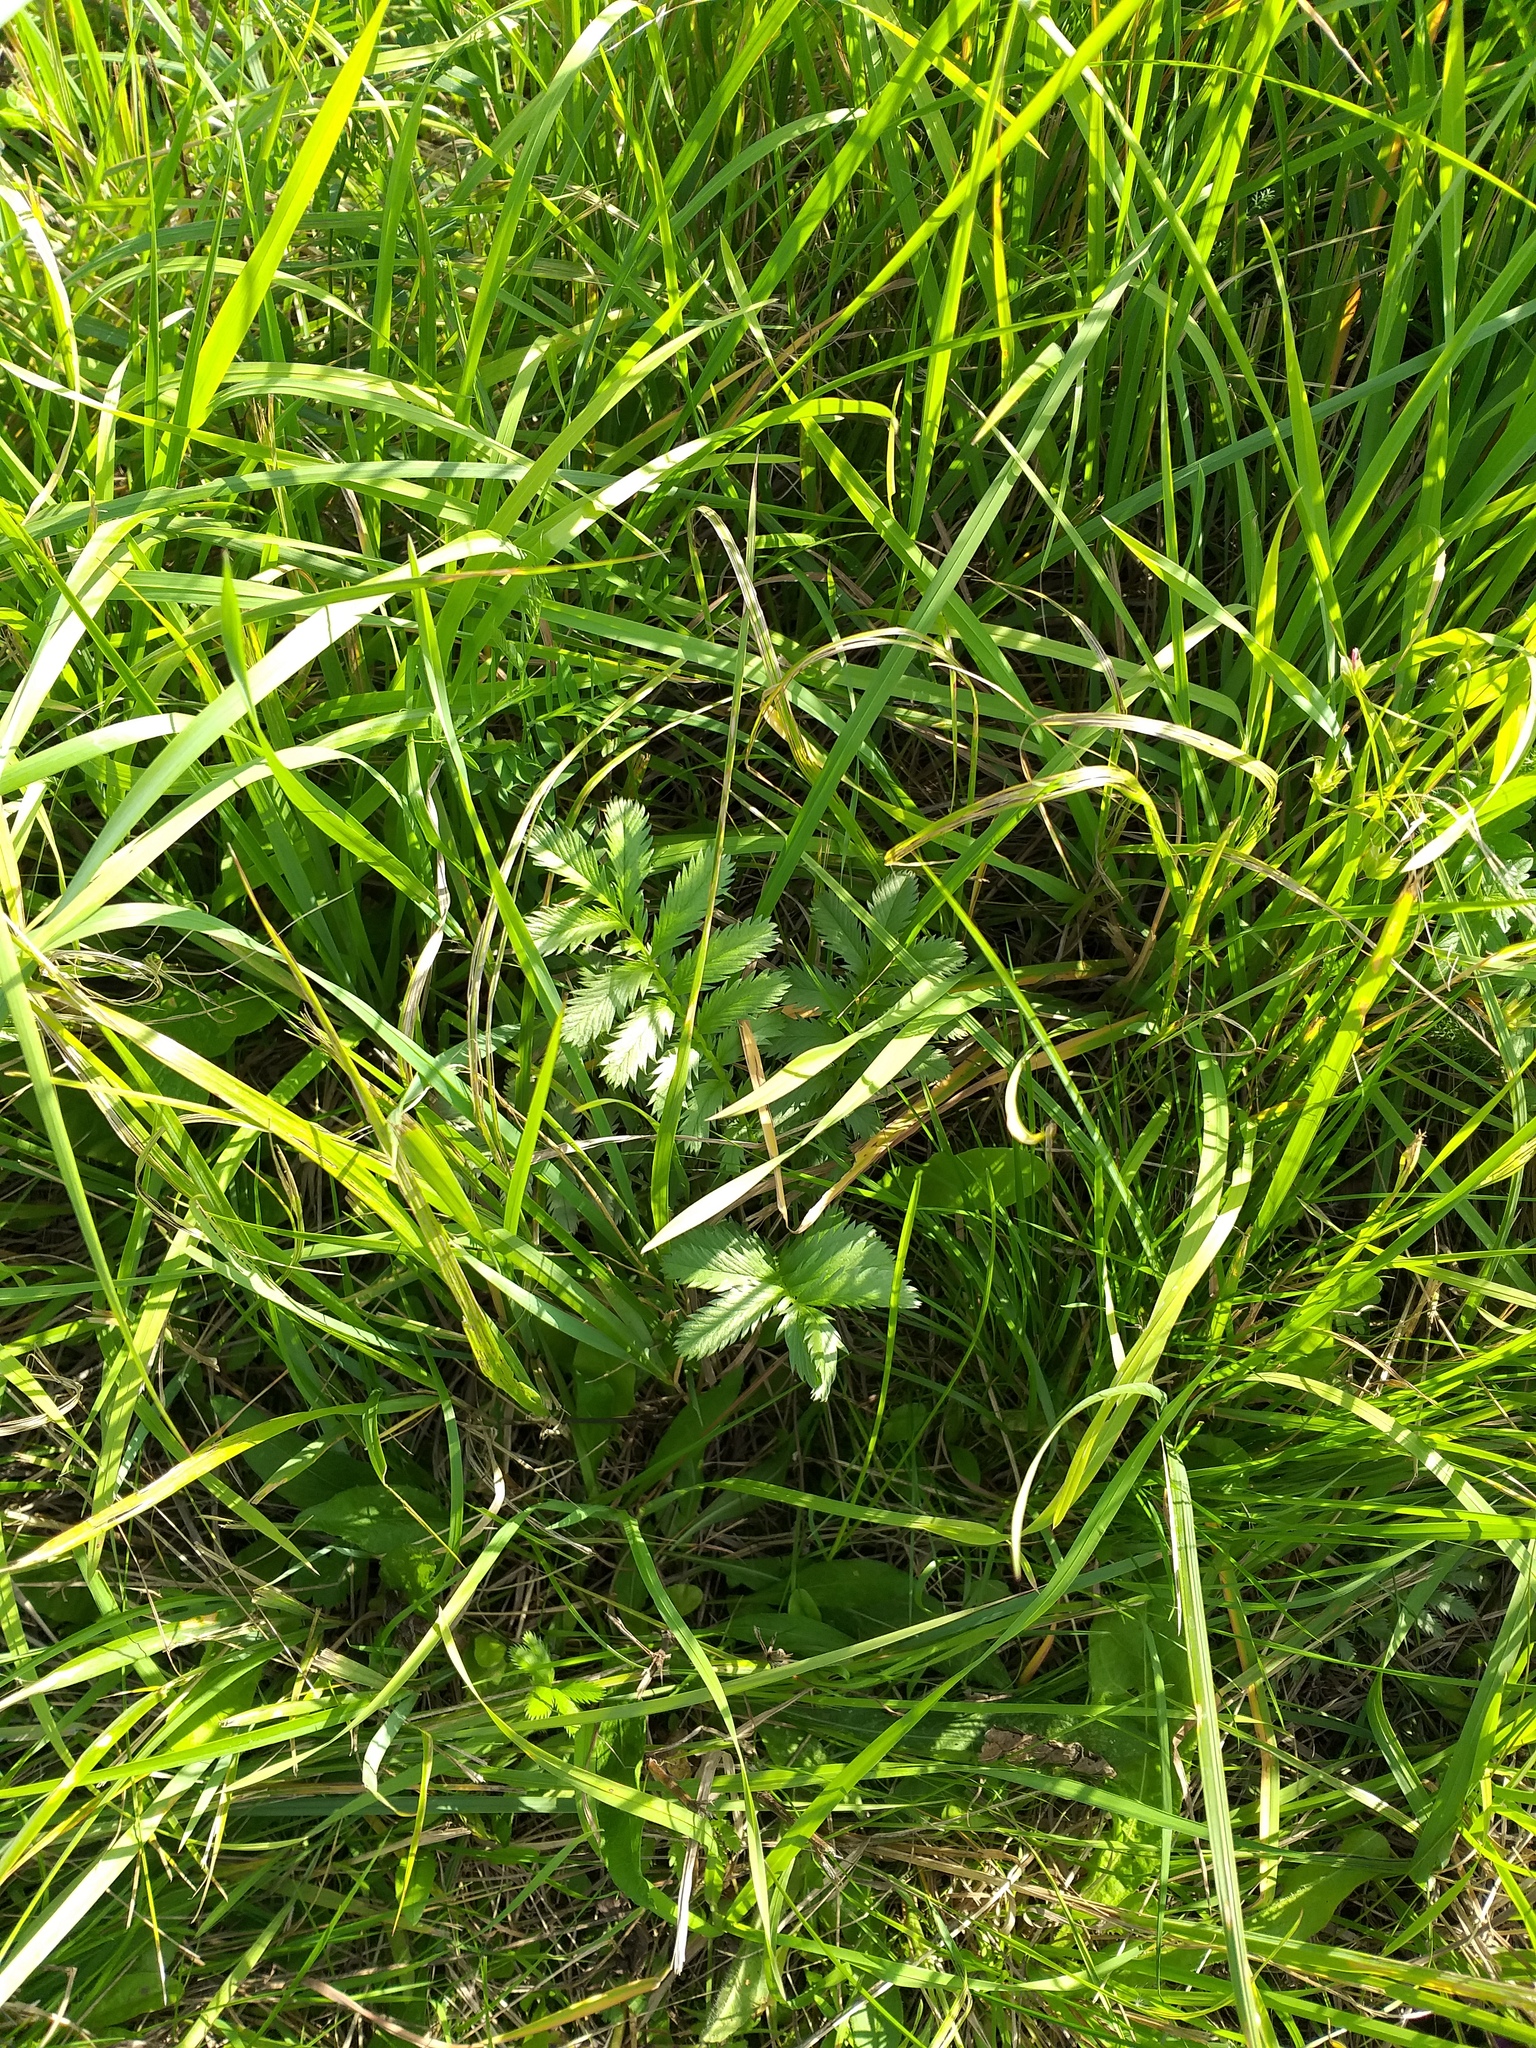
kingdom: Plantae
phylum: Tracheophyta
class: Magnoliopsida
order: Rosales
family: Rosaceae
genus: Argentina
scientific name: Argentina anserina
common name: Common silverweed
